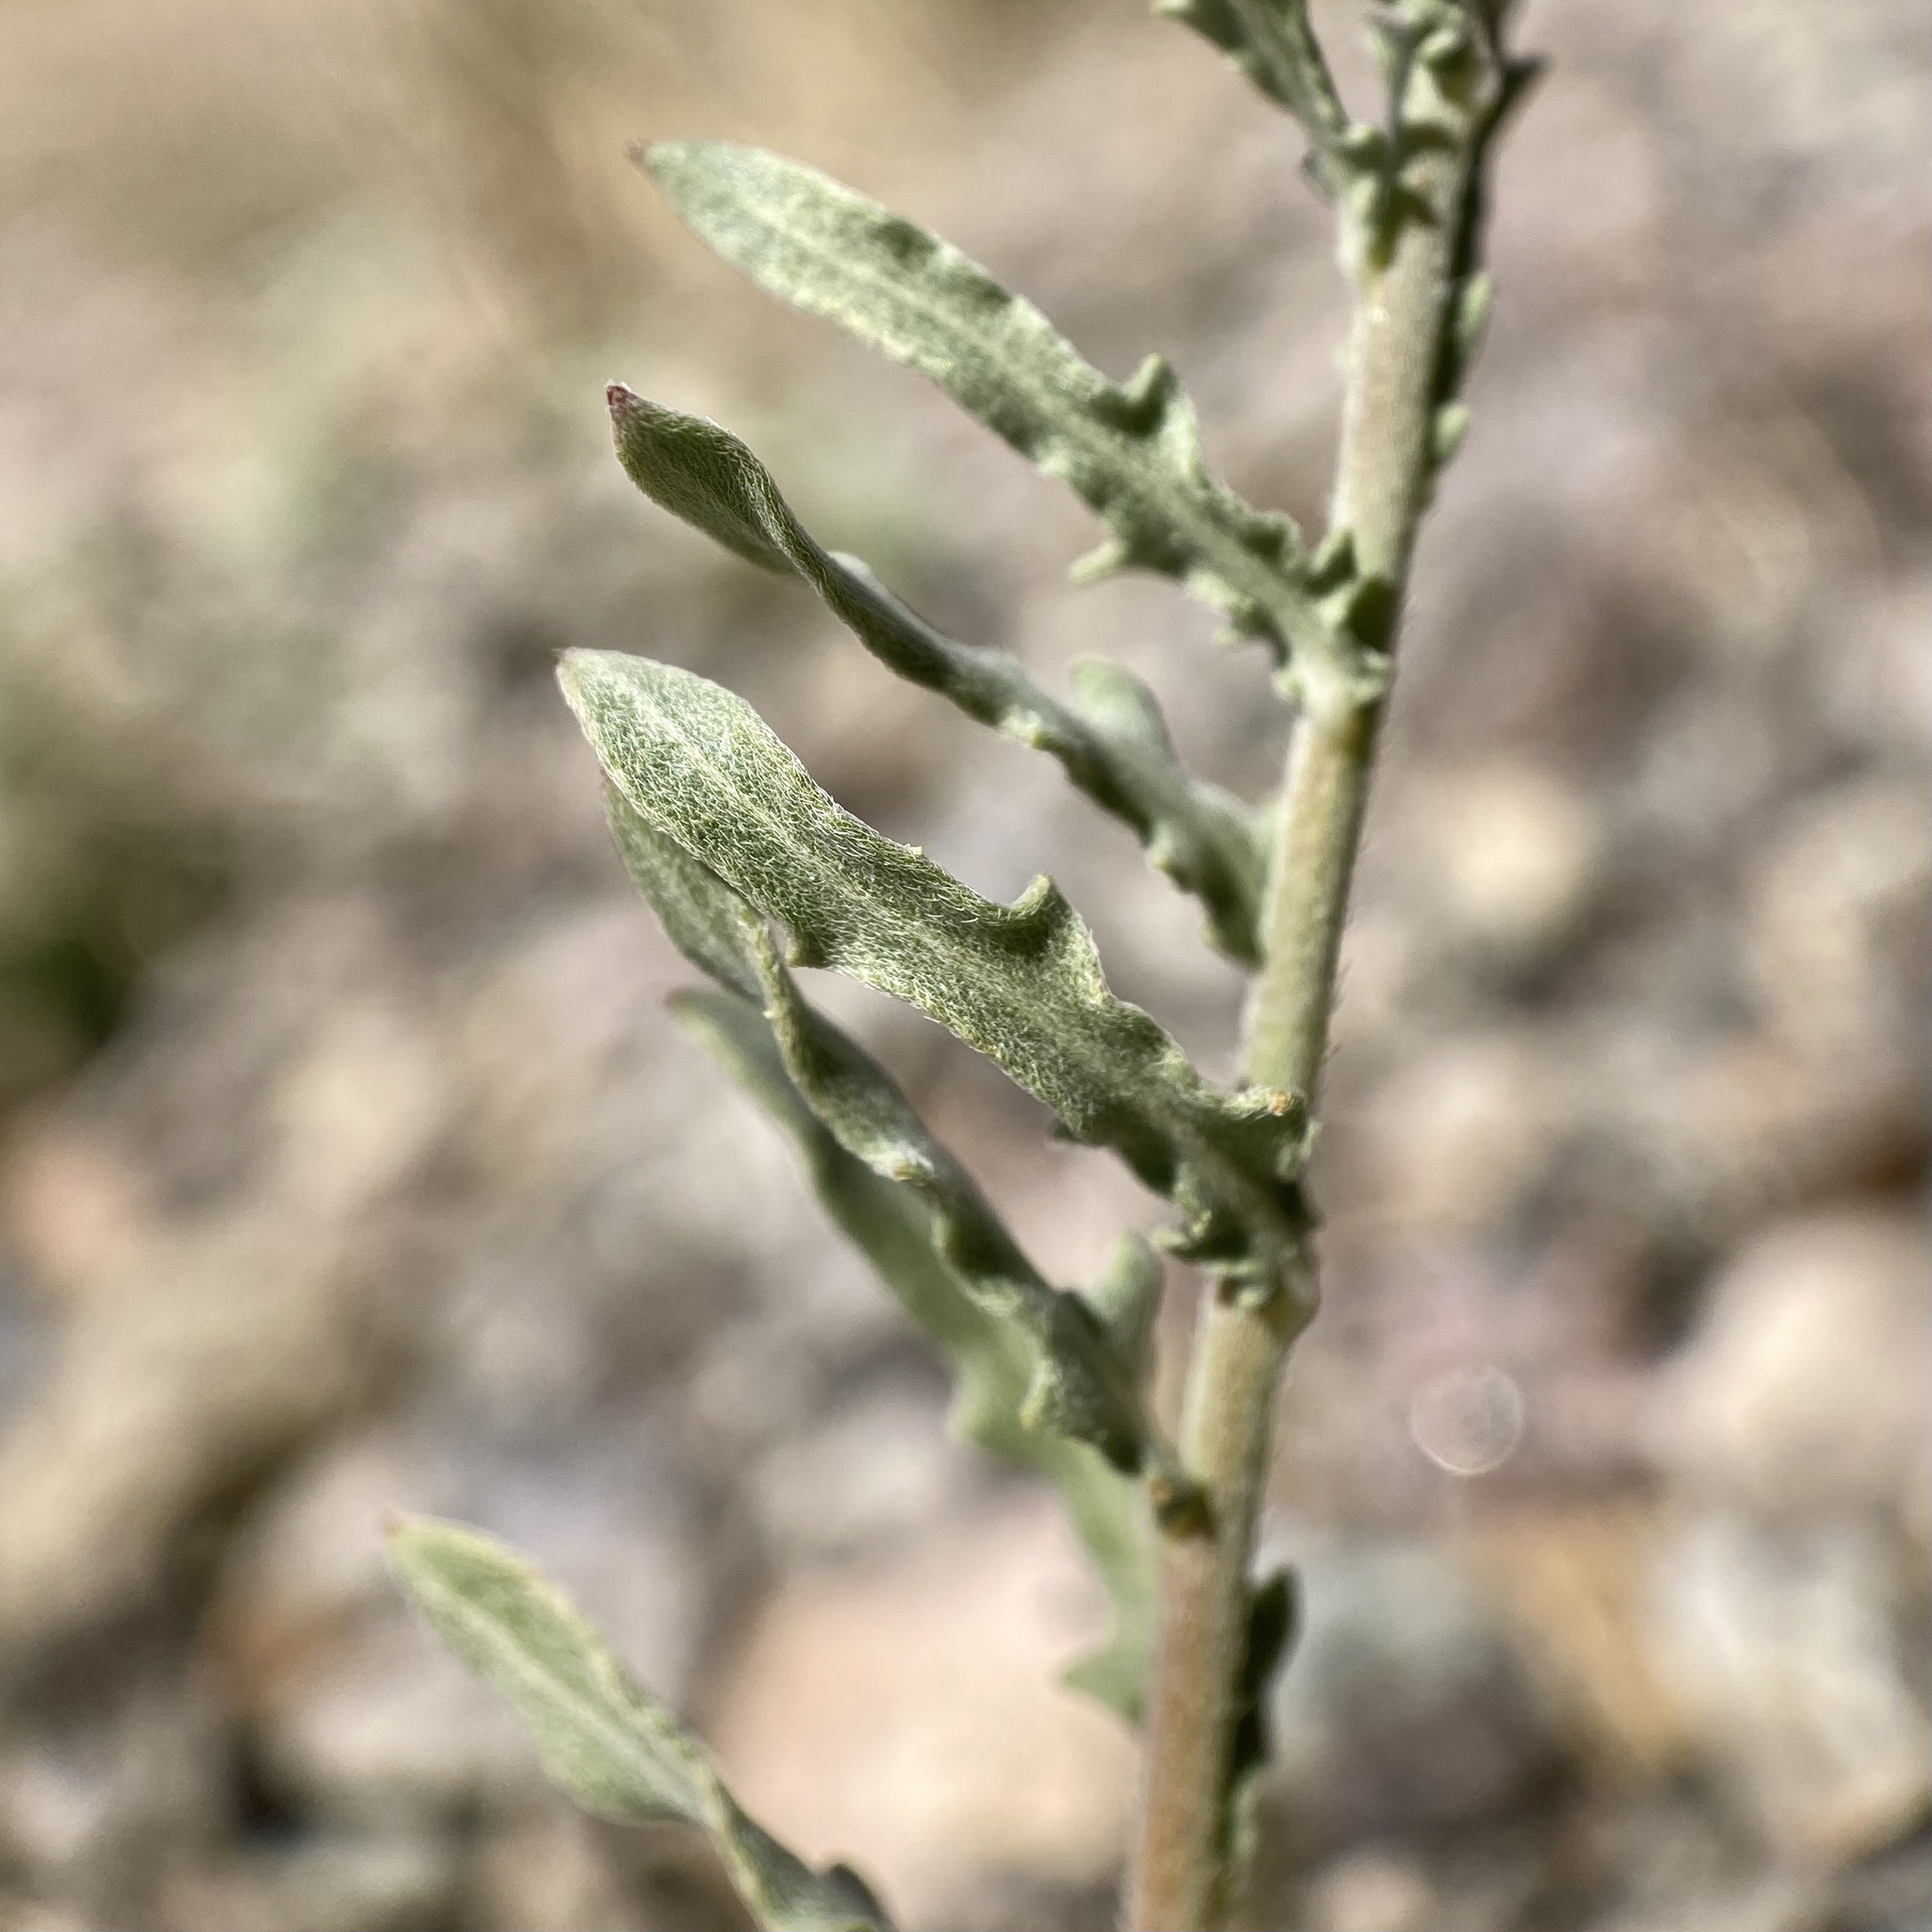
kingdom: Plantae
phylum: Tracheophyta
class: Magnoliopsida
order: Myrtales
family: Onagraceae
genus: Oenothera
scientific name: Oenothera suffrutescens
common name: Scarlet beeblossom
